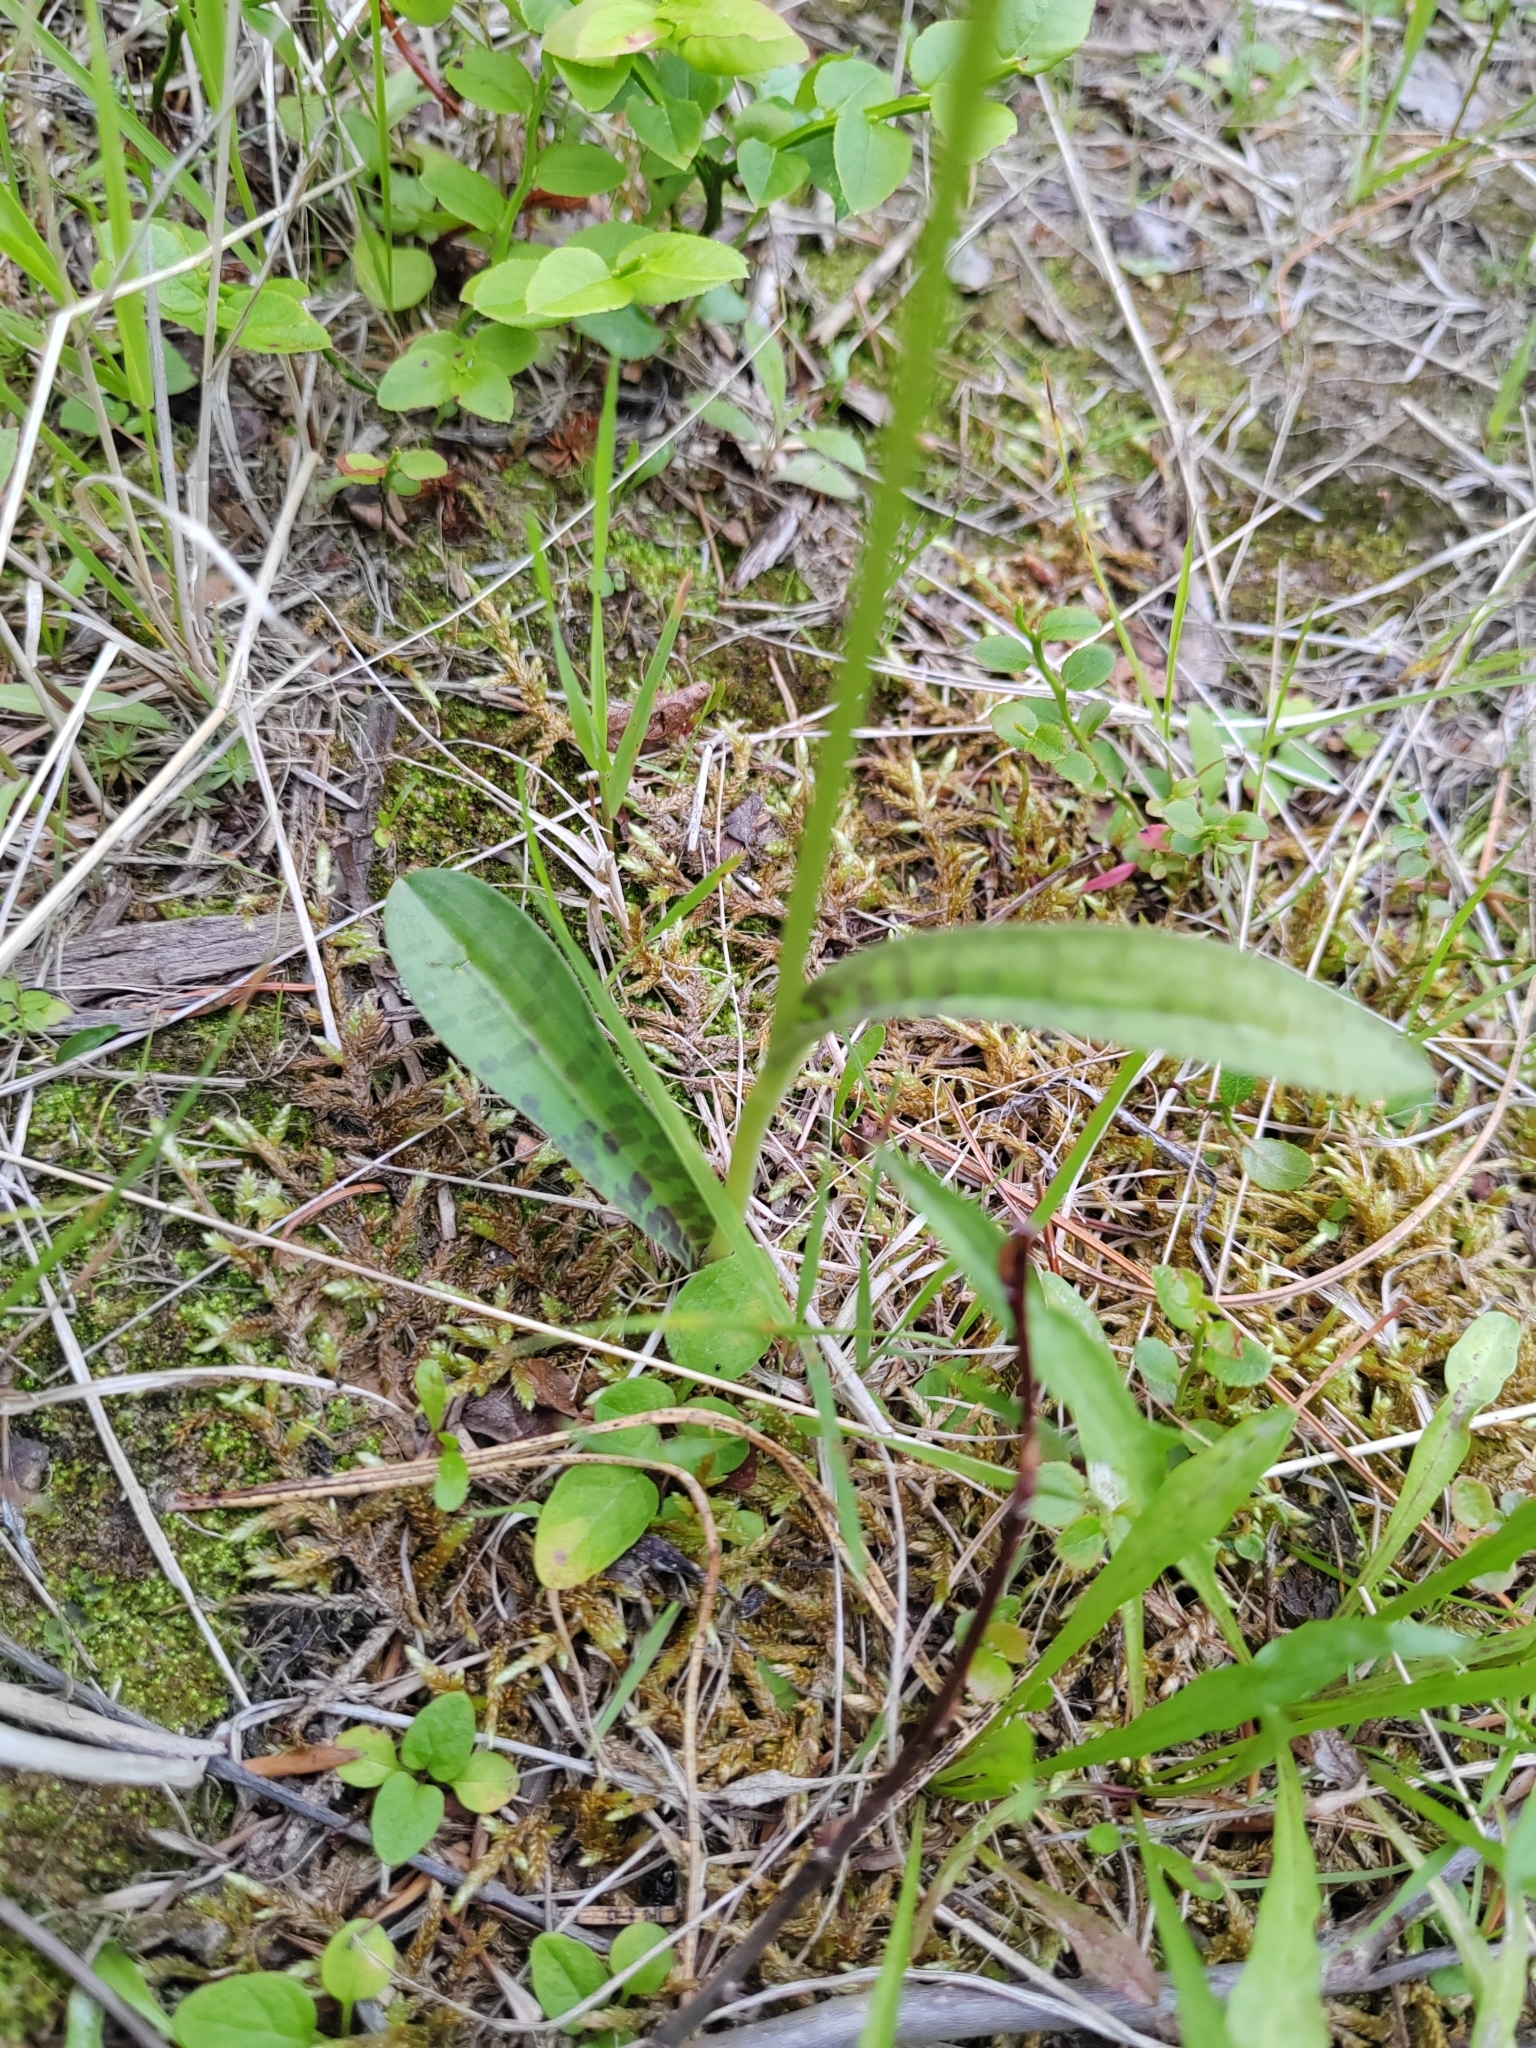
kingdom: Plantae
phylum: Tracheophyta
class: Liliopsida
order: Asparagales
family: Orchidaceae
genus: Dactylorhiza
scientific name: Dactylorhiza maculata
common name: Heath spotted-orchid
